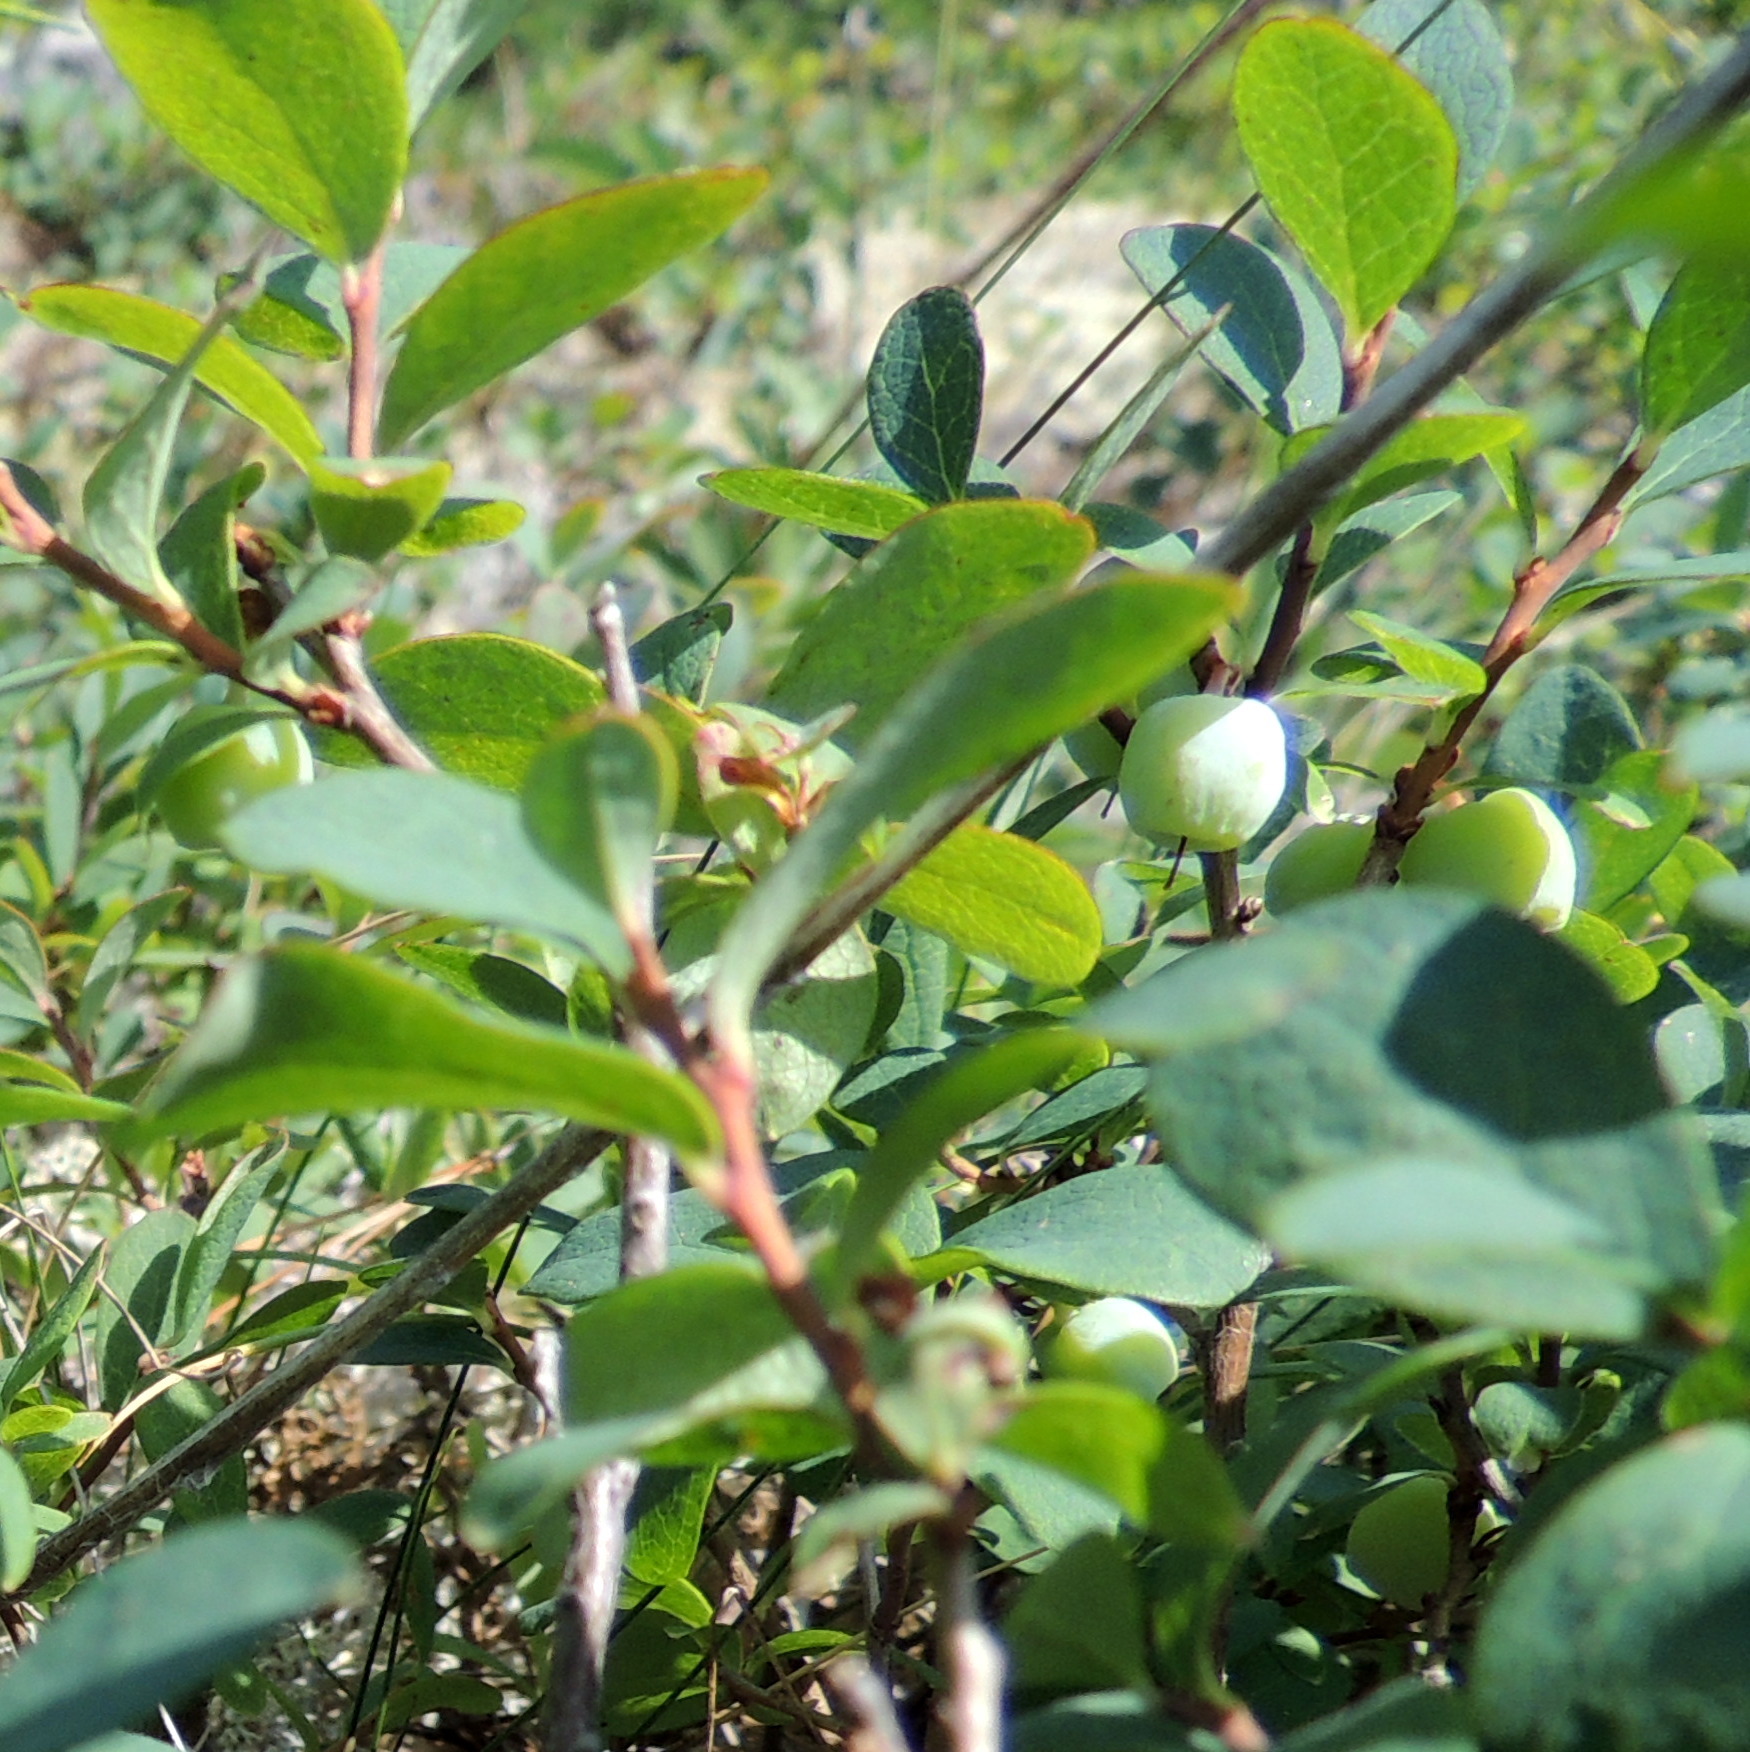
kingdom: Plantae
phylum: Tracheophyta
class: Magnoliopsida
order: Ericales
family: Ericaceae
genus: Vaccinium
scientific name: Vaccinium uliginosum
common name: Bog bilberry
